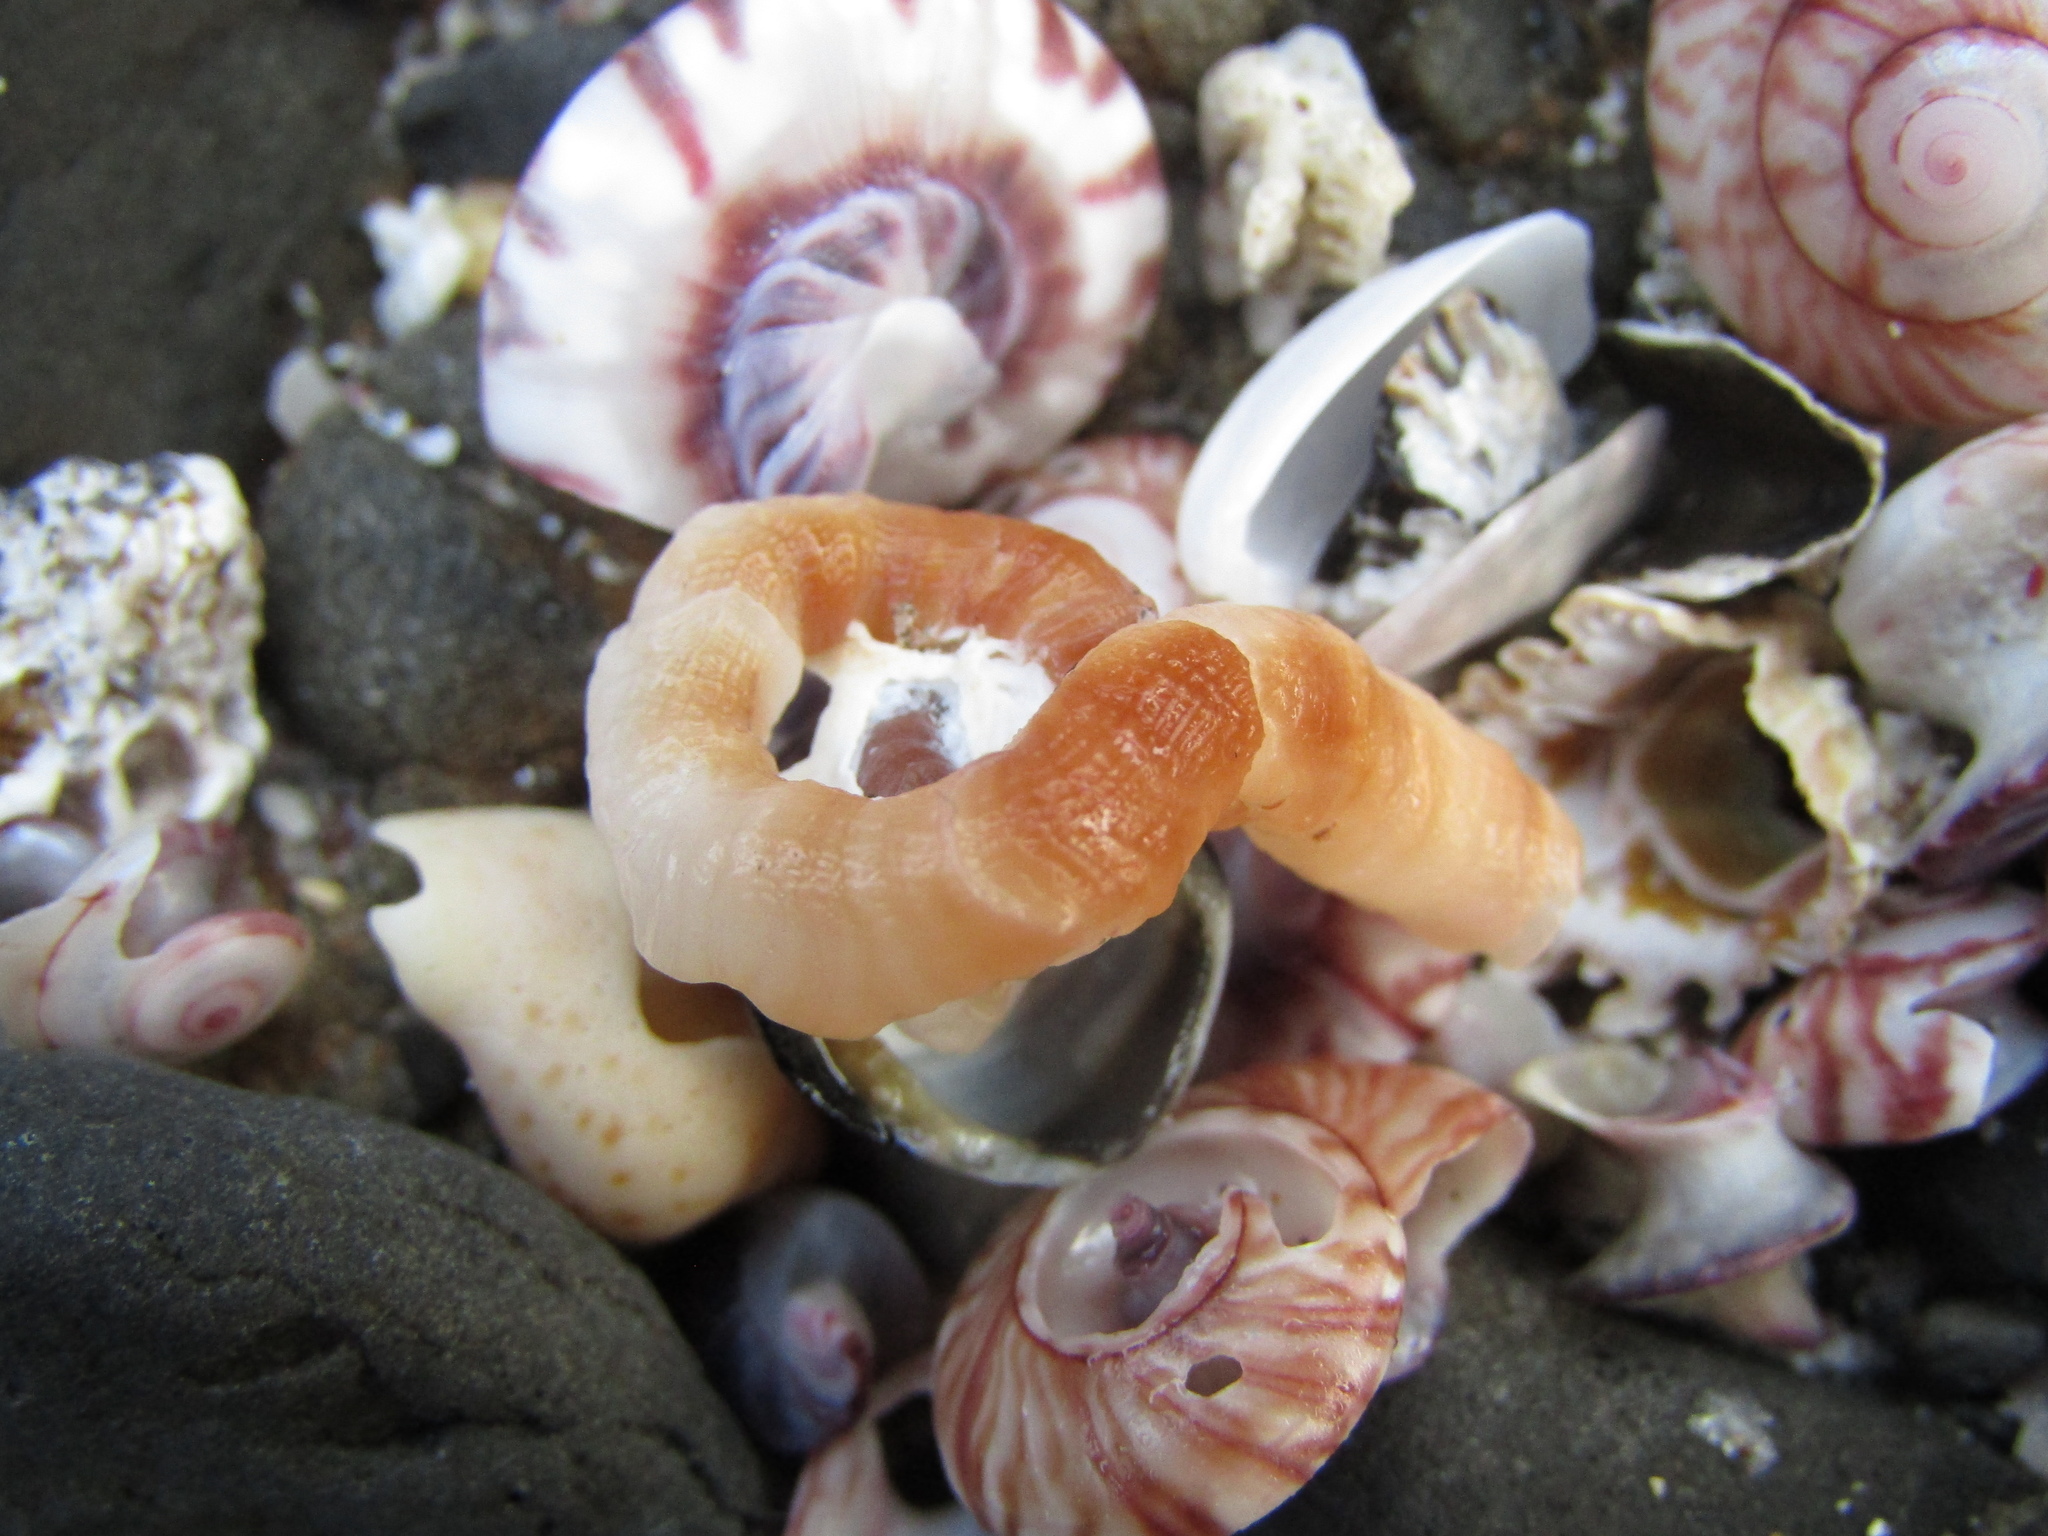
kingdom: Animalia
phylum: Mollusca
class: Gastropoda
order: Littorinimorpha
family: Vermetidae
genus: Thylacodes
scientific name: Thylacodes aotearoicus
